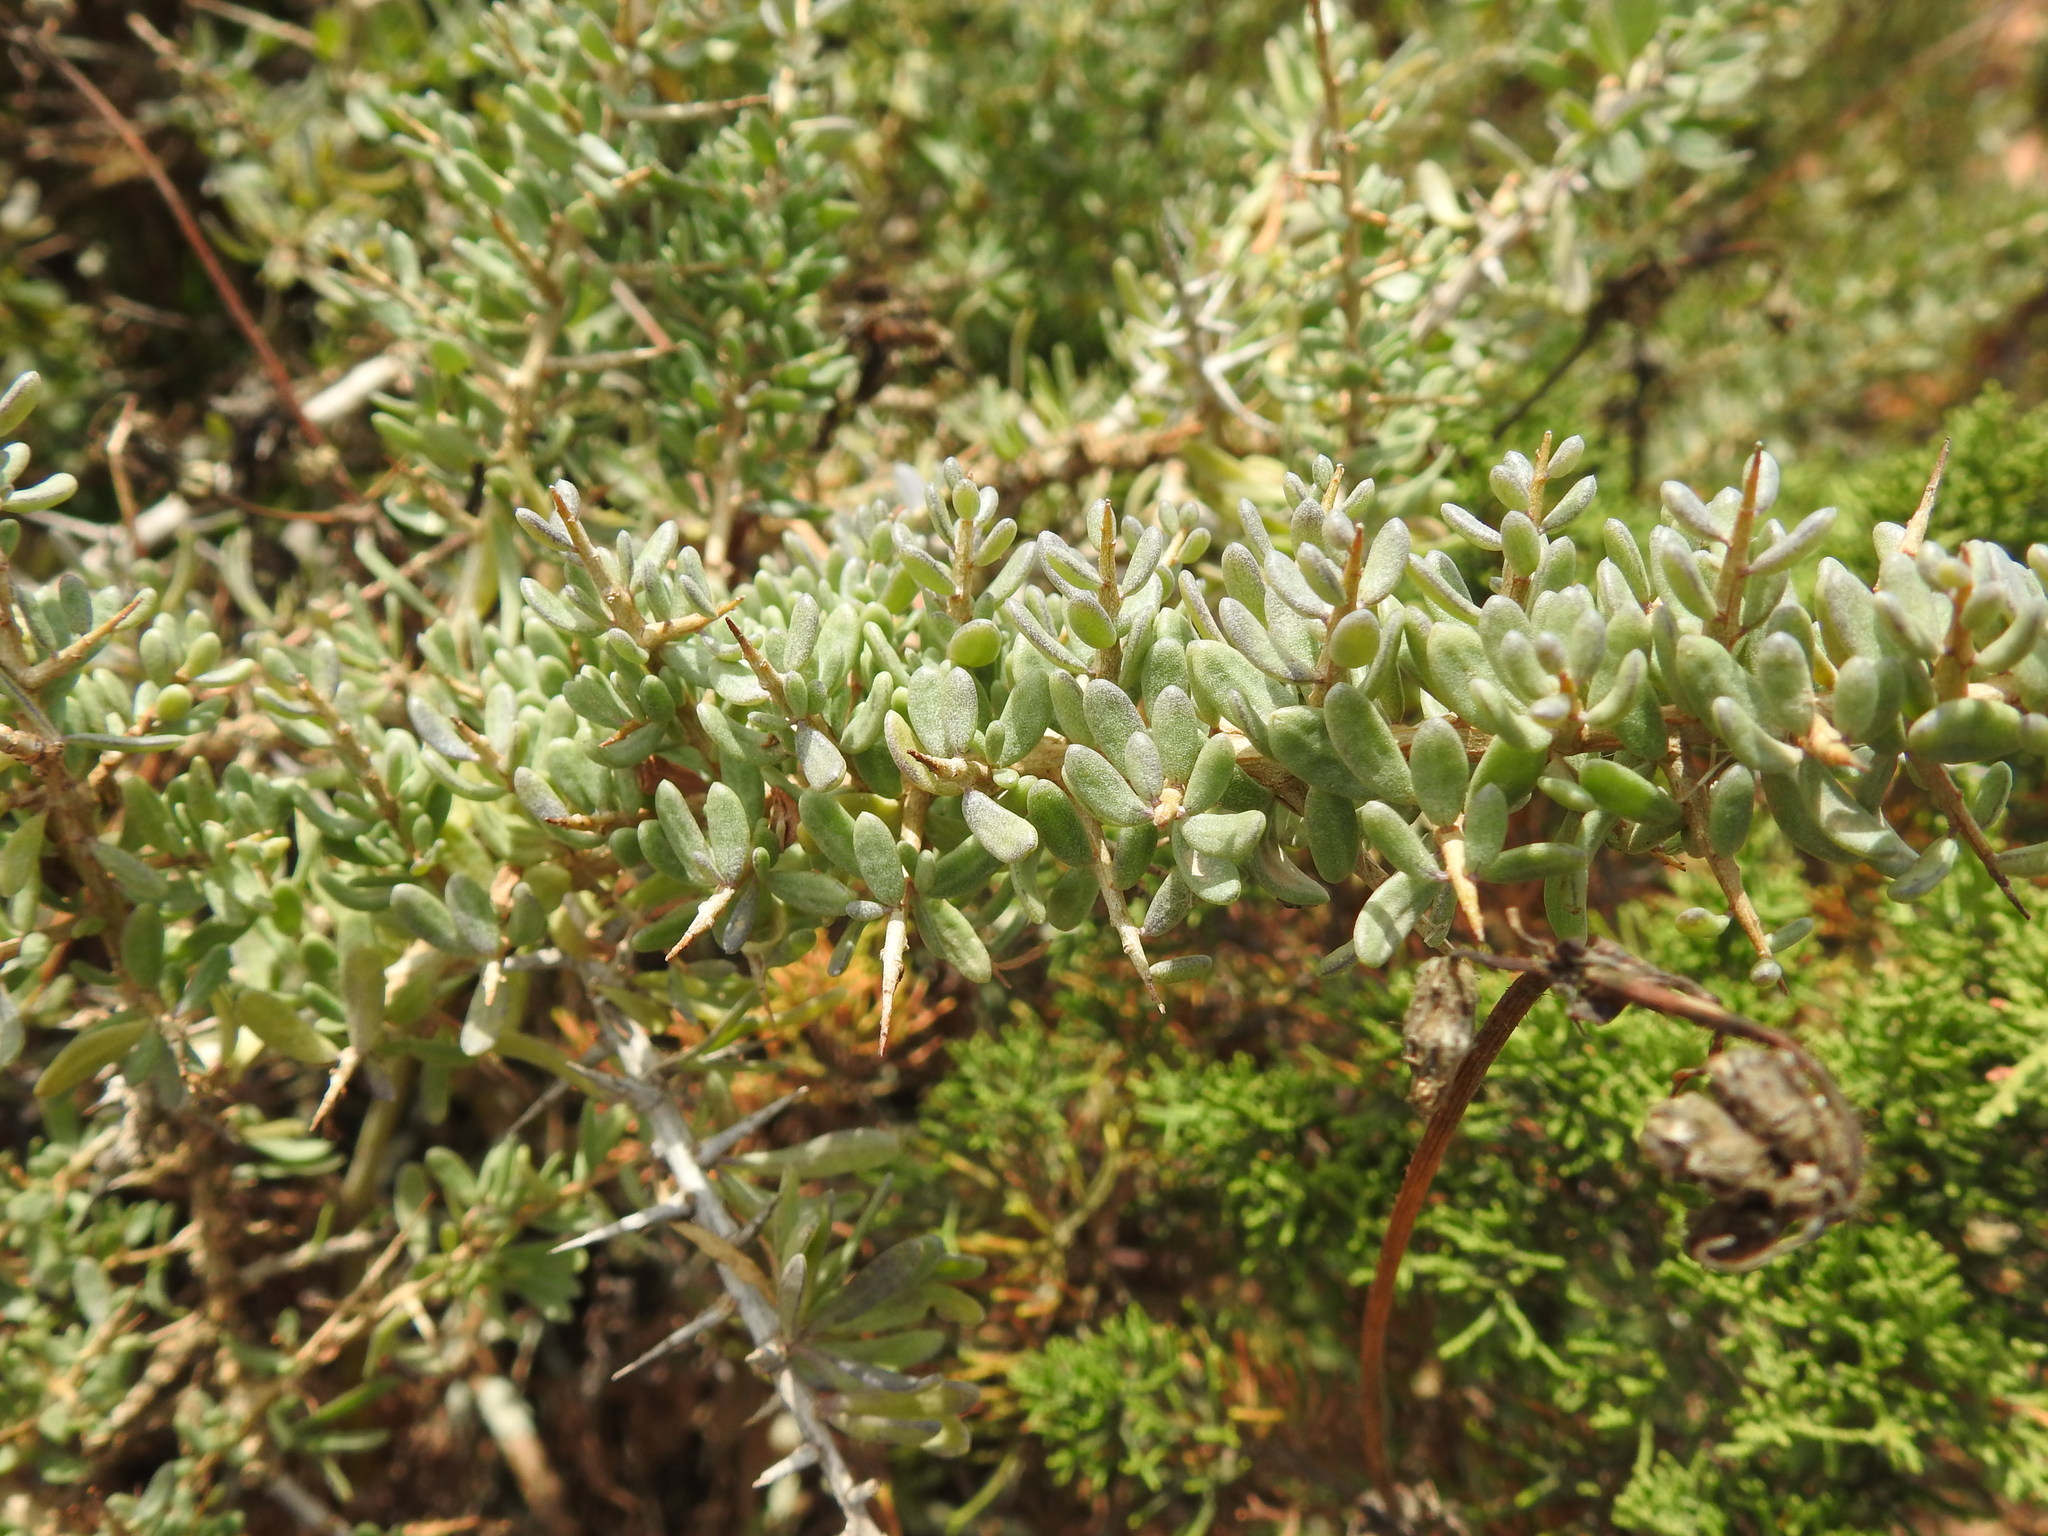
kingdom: Plantae
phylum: Tracheophyta
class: Magnoliopsida
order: Solanales
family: Solanaceae
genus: Lycium
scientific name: Lycium intricatum
